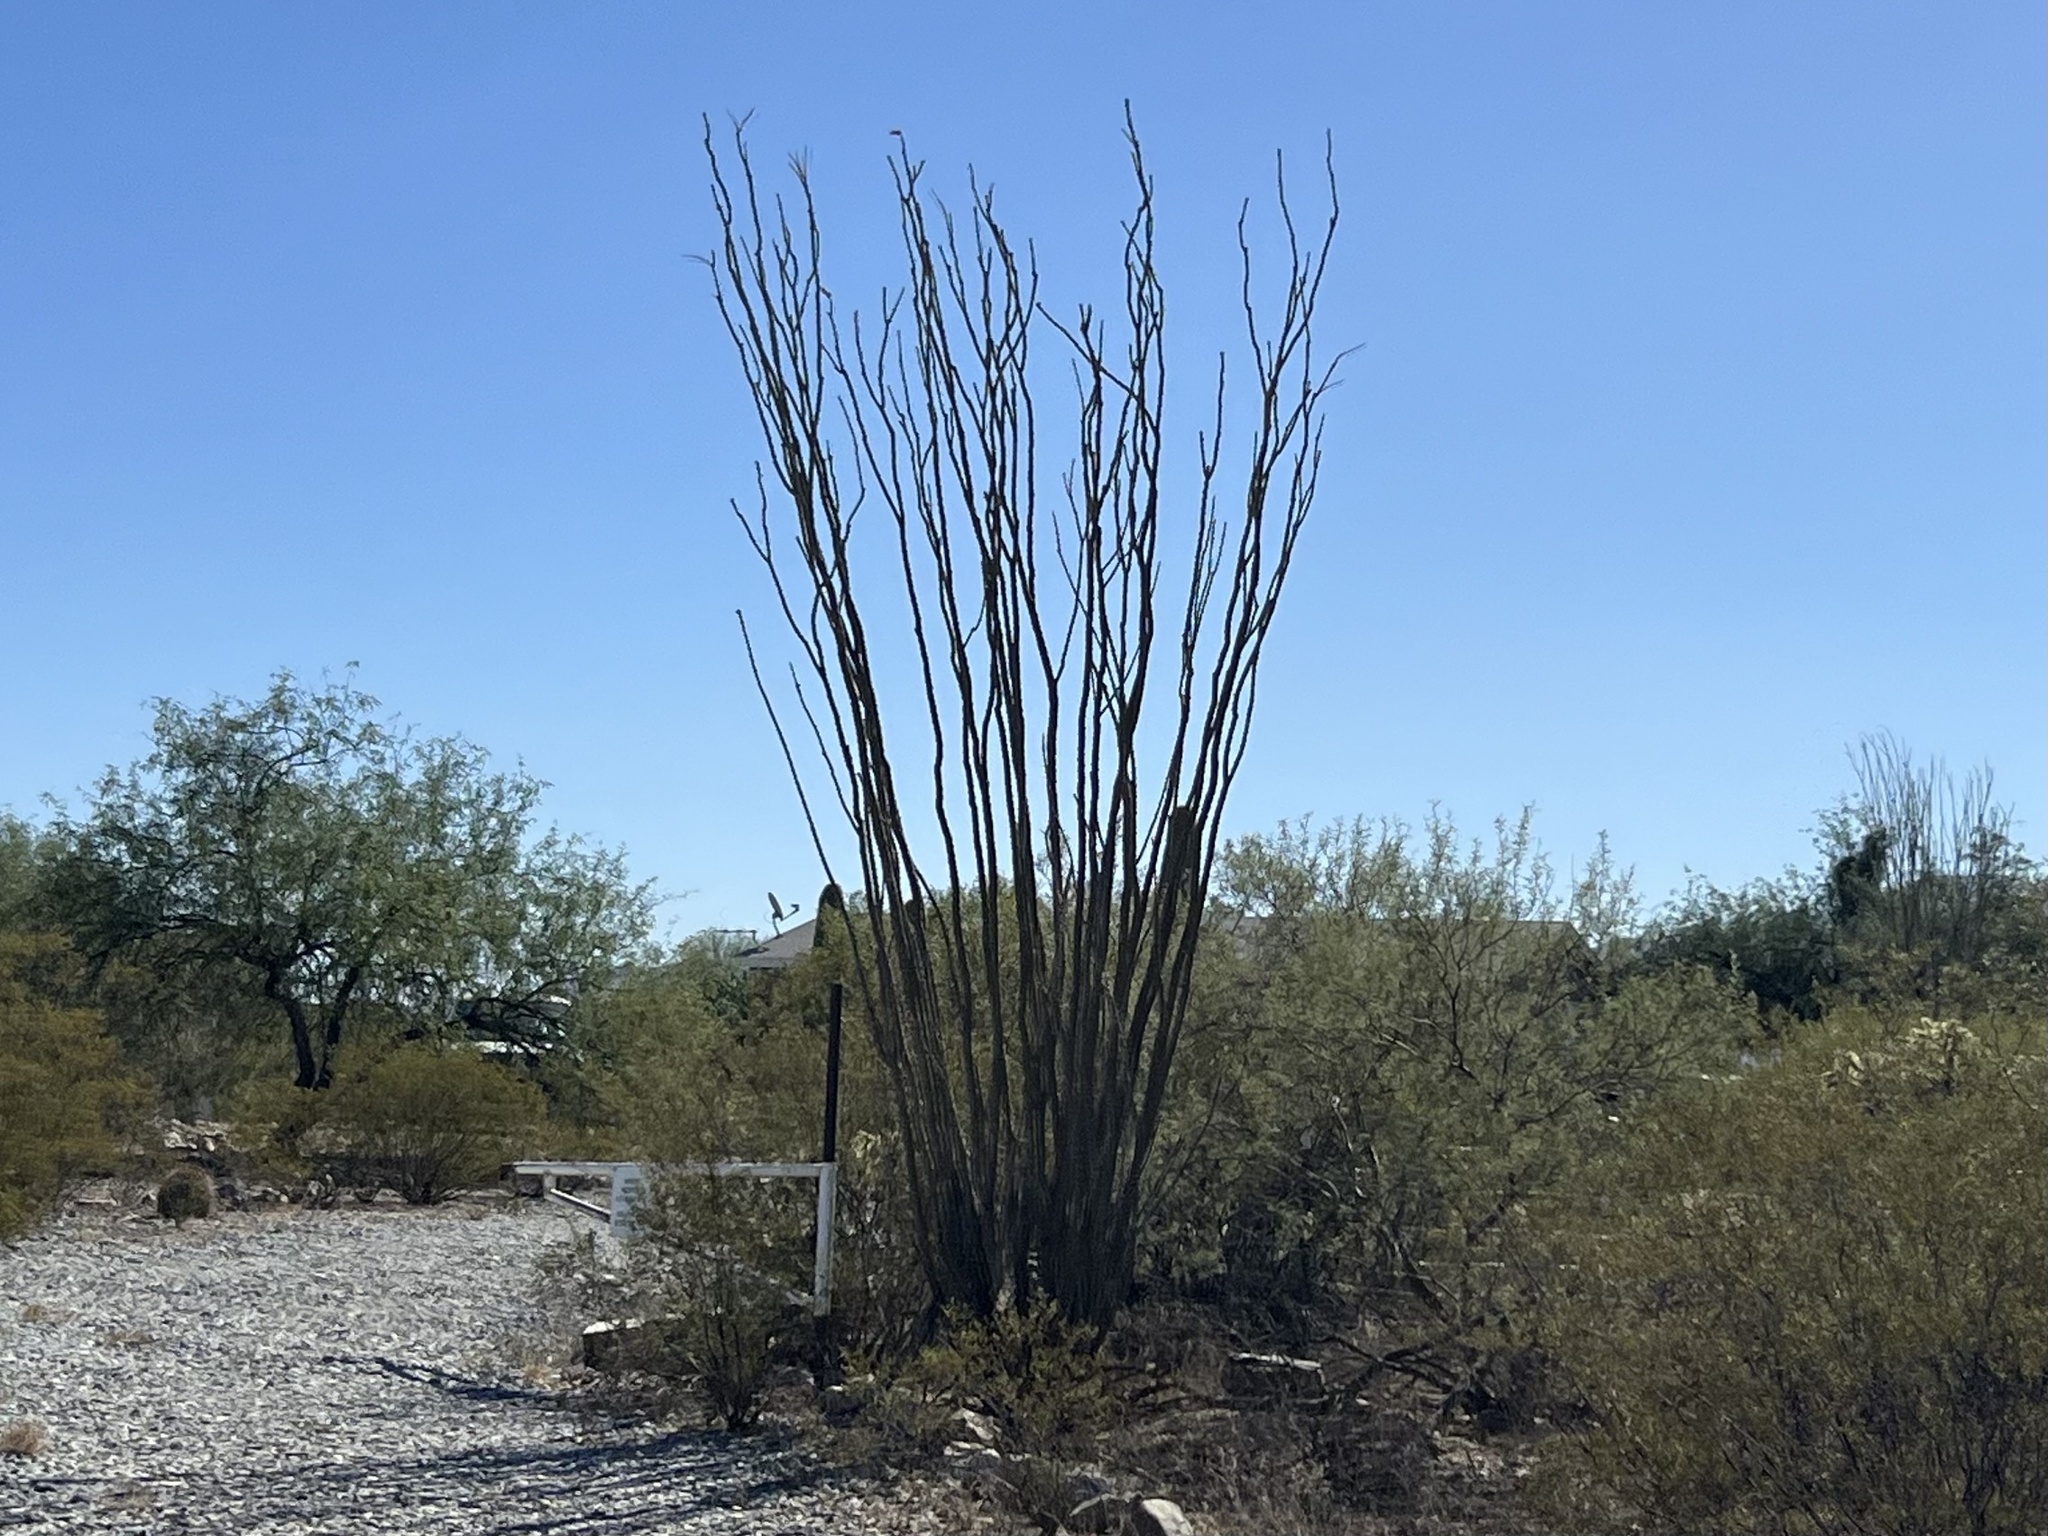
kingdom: Plantae
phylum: Tracheophyta
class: Magnoliopsida
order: Ericales
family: Fouquieriaceae
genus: Fouquieria
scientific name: Fouquieria splendens
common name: Vine-cactus
